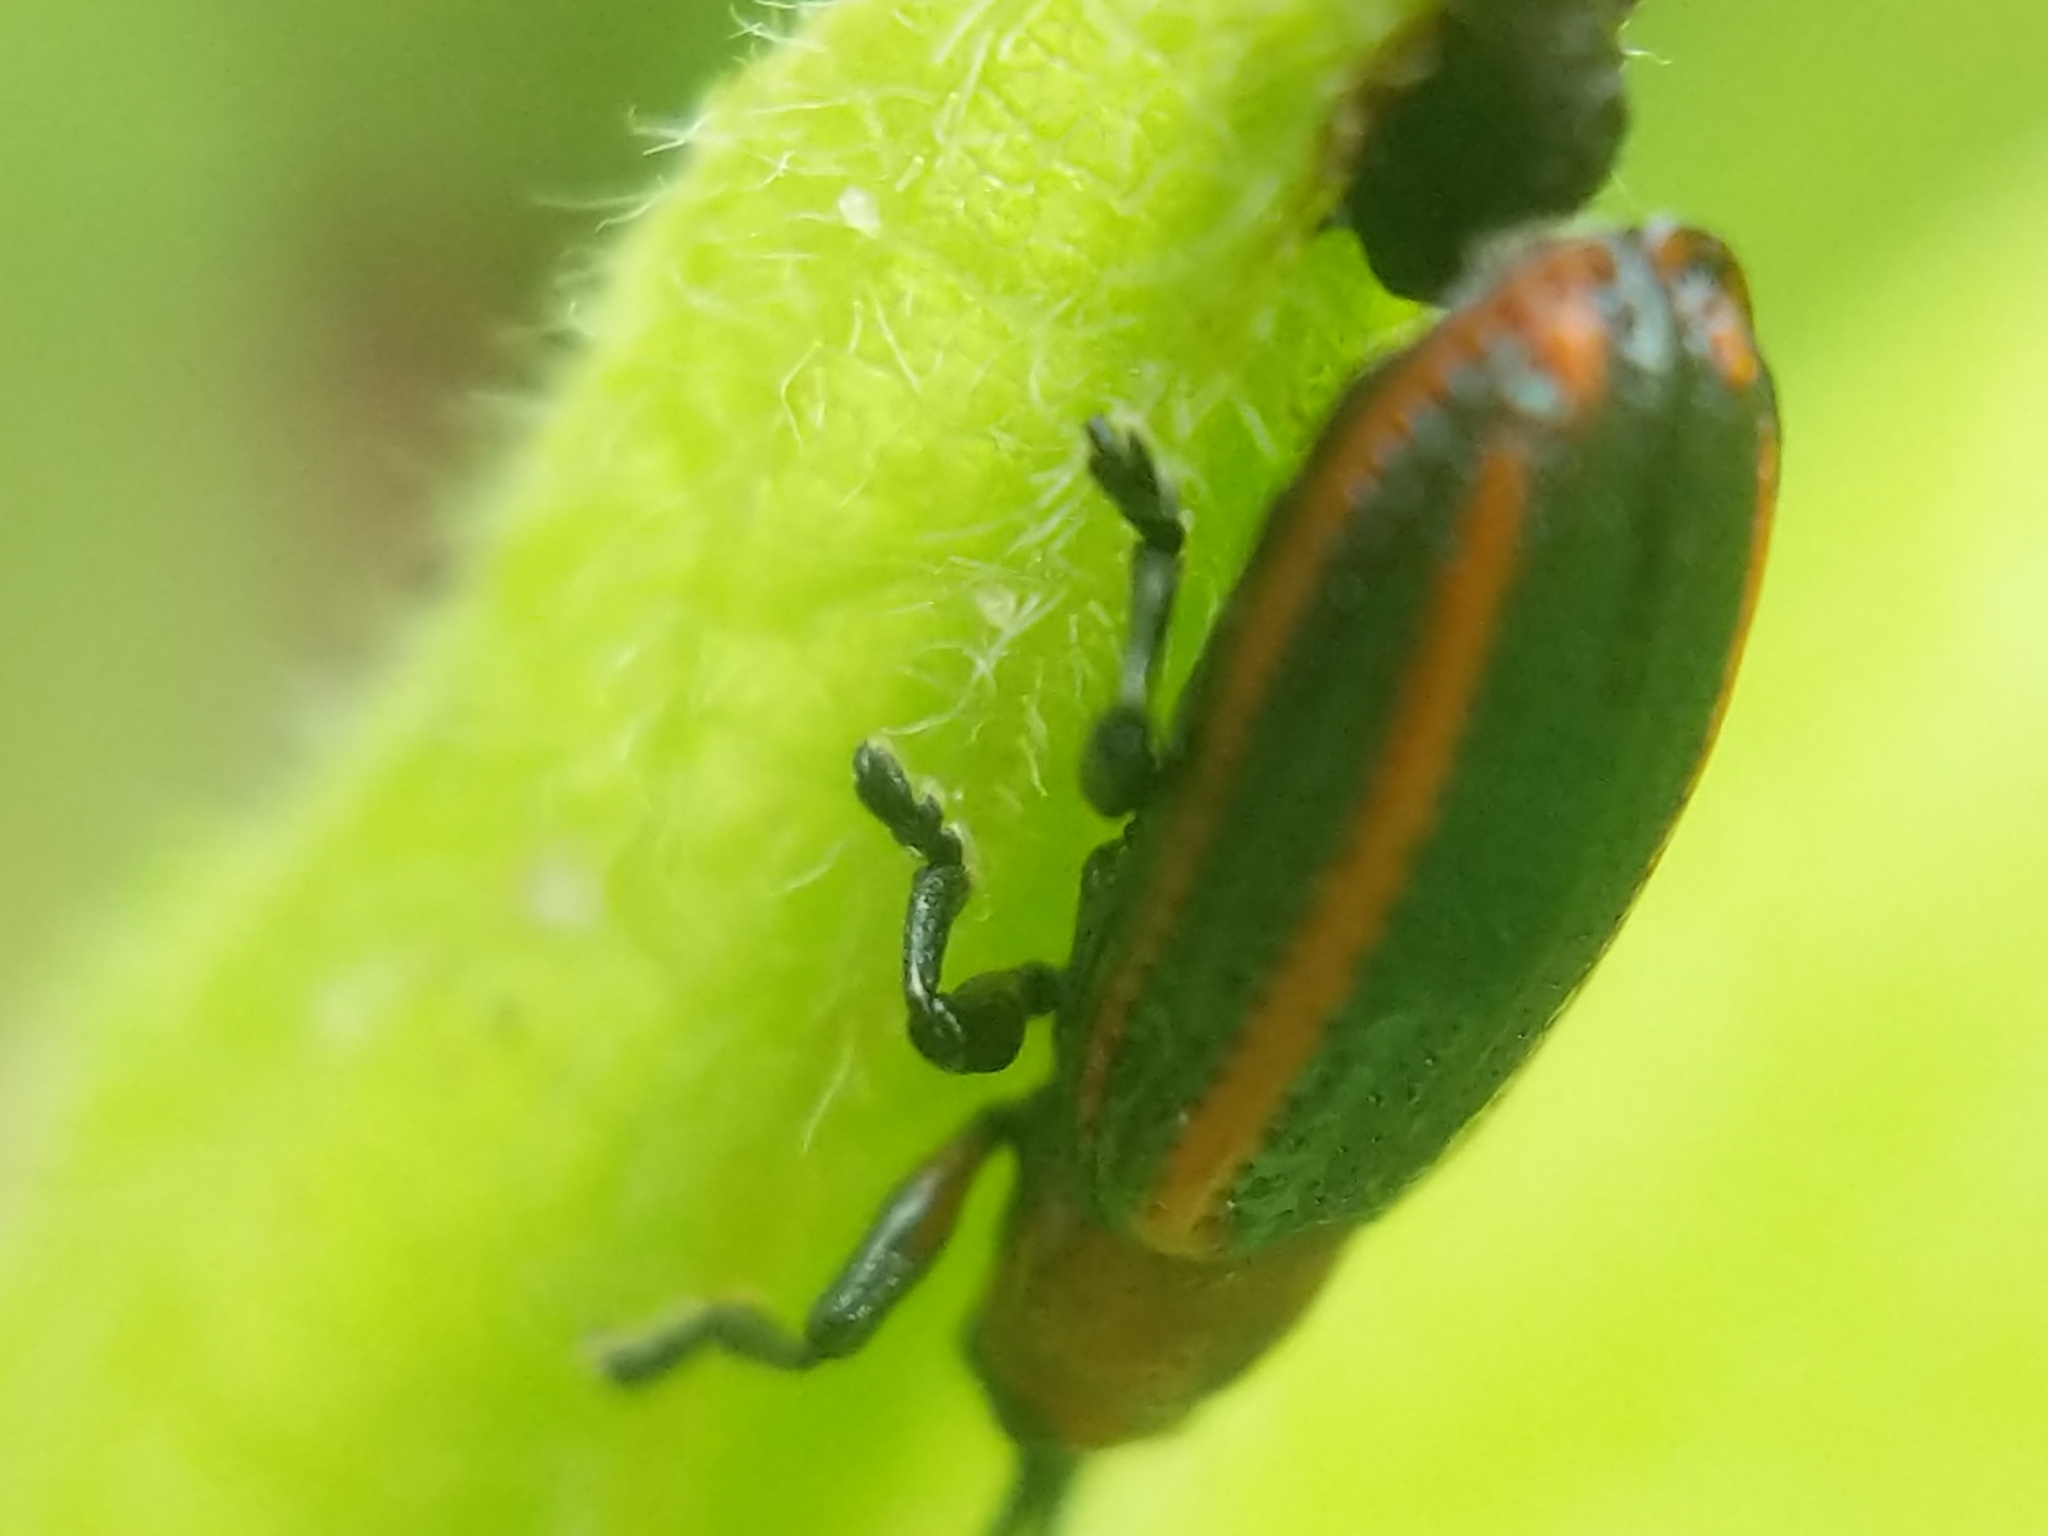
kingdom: Animalia
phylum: Arthropoda
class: Insecta
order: Coleoptera
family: Chrysomelidae
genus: Microrhopala
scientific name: Microrhopala vittata
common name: Goldenrod leaf miner beetle
